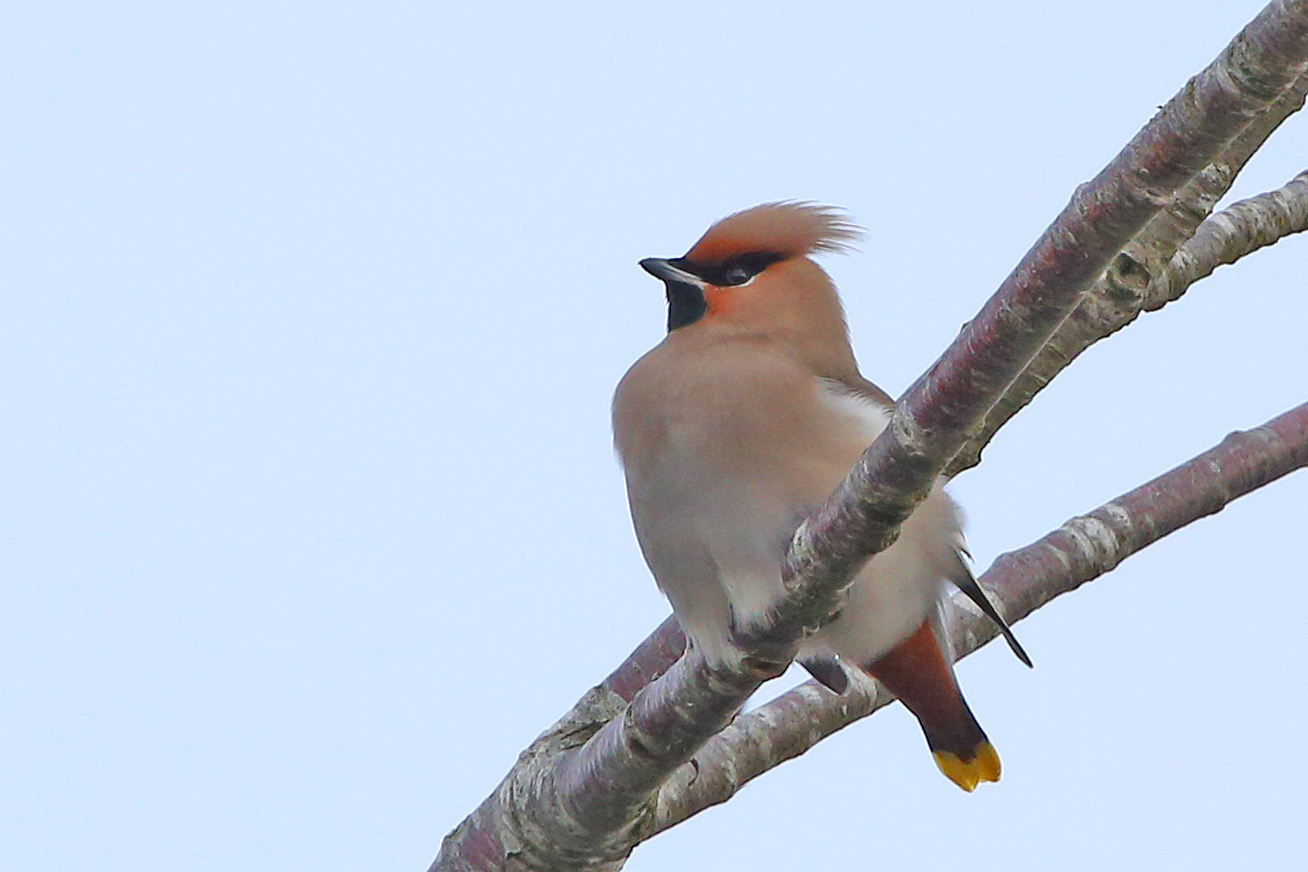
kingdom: Animalia
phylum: Chordata
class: Aves
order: Passeriformes
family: Bombycillidae
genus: Bombycilla
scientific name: Bombycilla garrulus
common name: Bohemian waxwing
